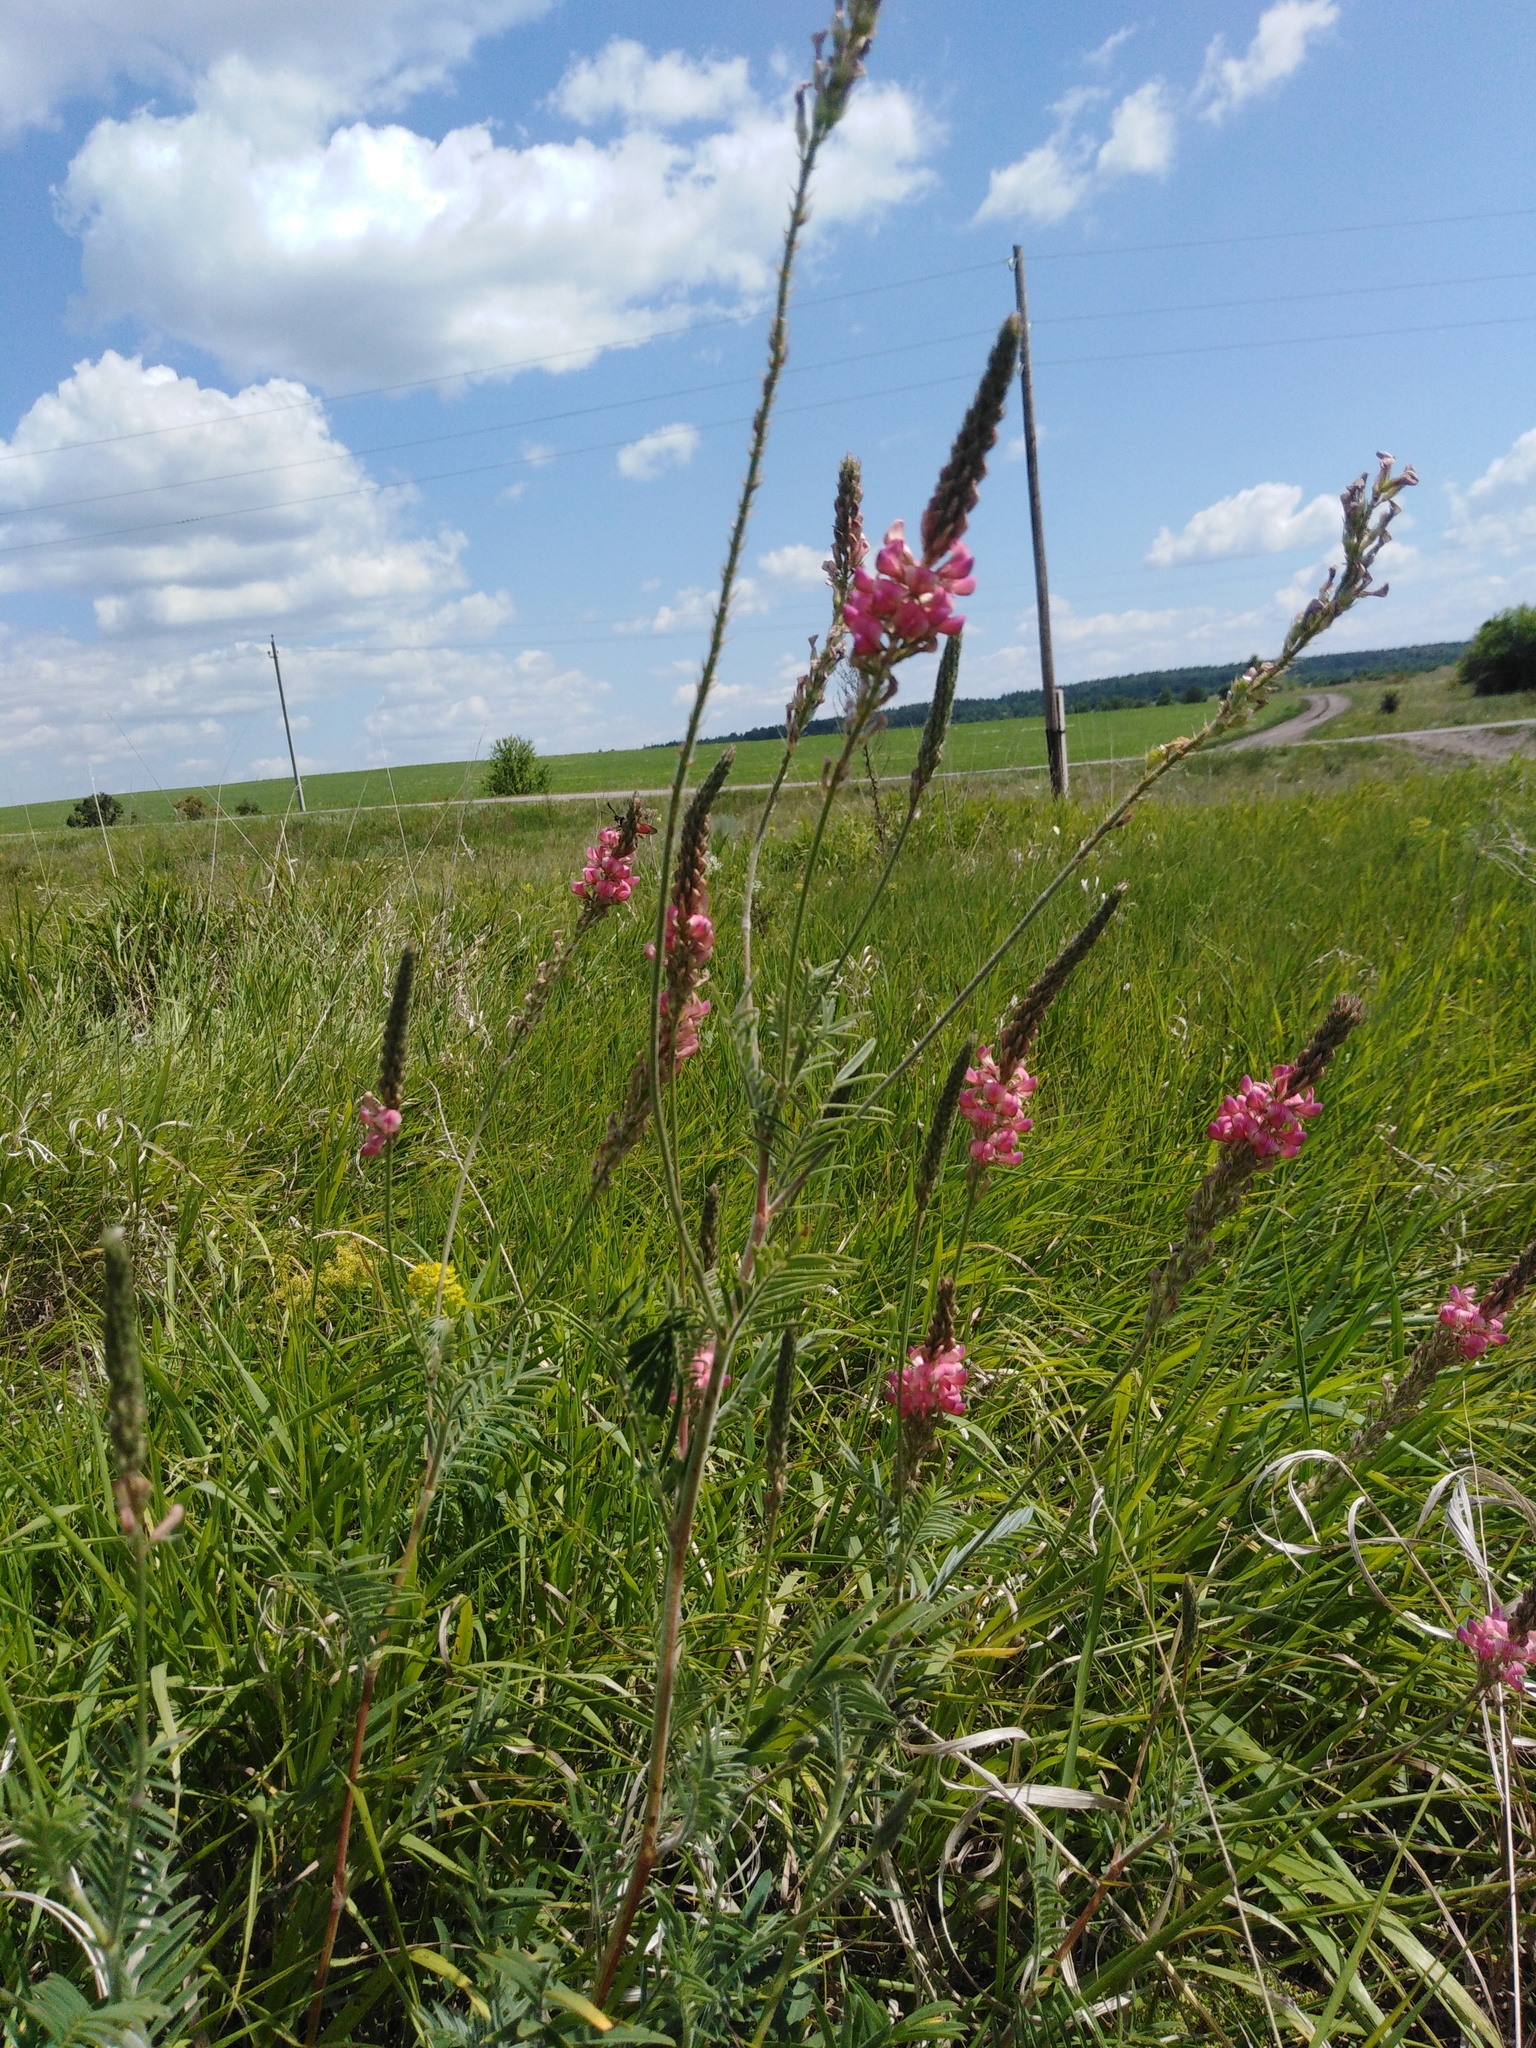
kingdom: Plantae
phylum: Tracheophyta
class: Magnoliopsida
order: Fabales
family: Fabaceae
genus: Onobrychis
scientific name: Onobrychis viciifolia
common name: Sainfoin
